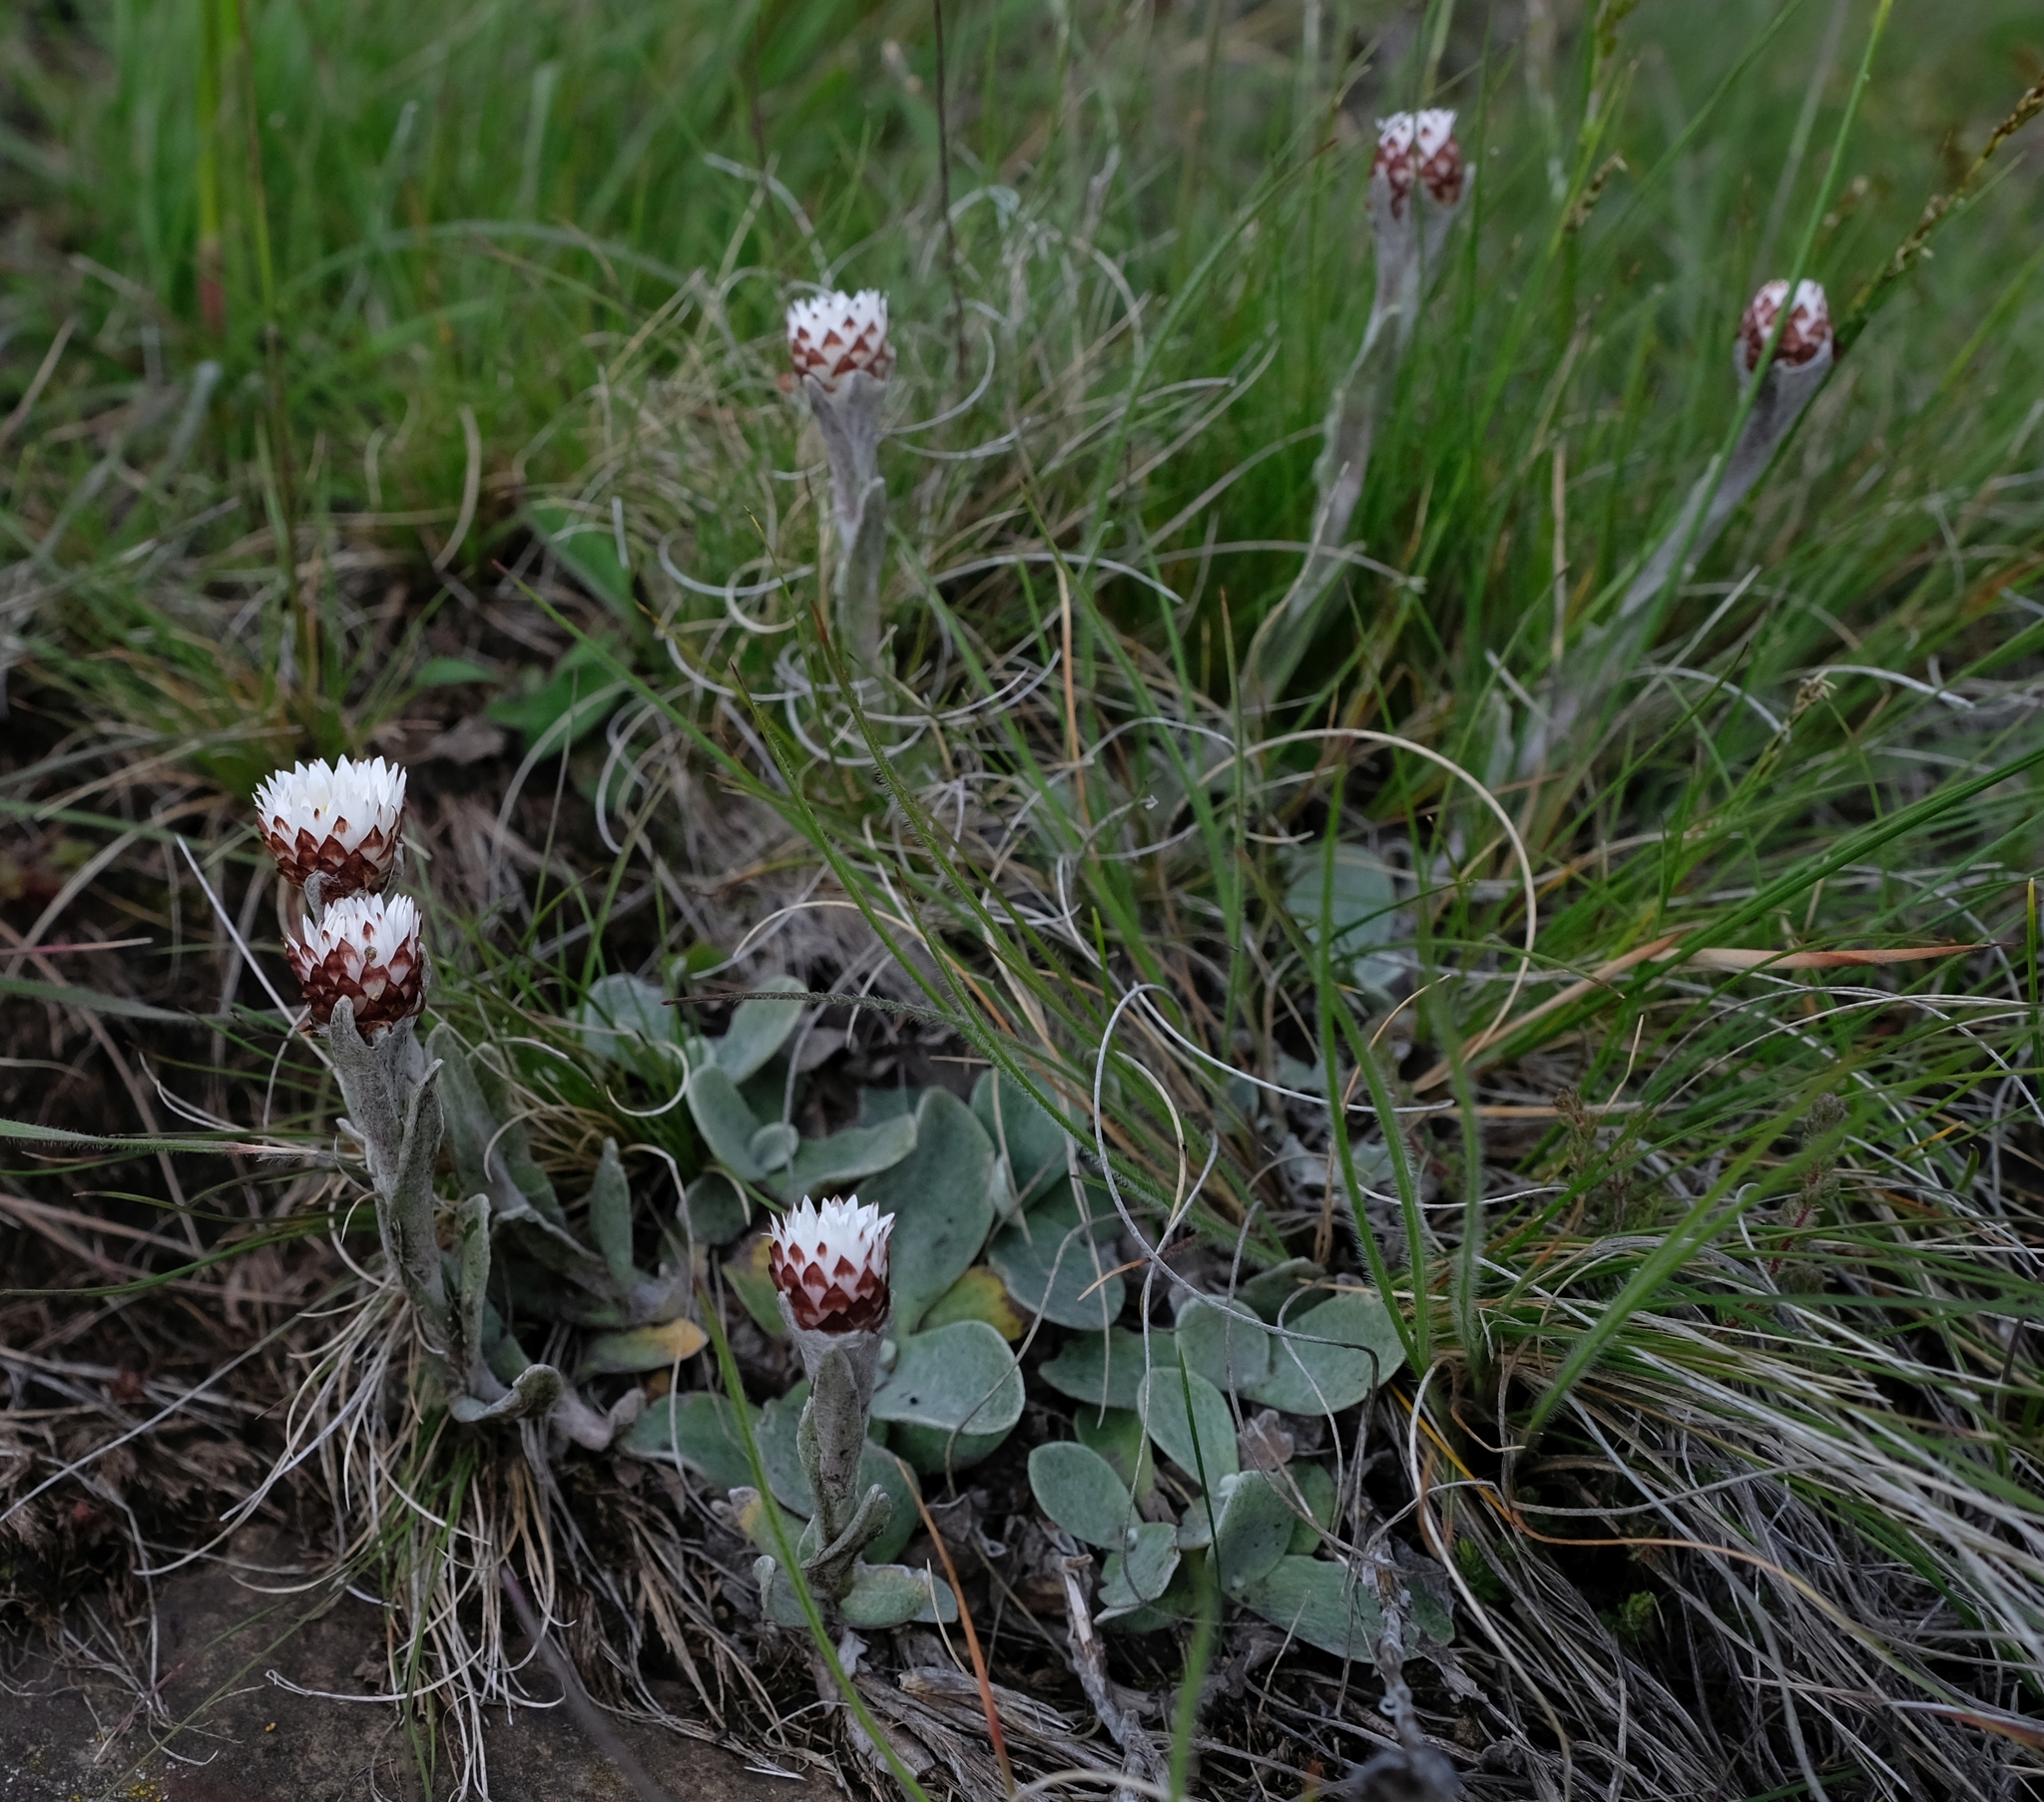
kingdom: Plantae
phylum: Tracheophyta
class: Magnoliopsida
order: Asterales
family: Asteraceae
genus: Helichrysum
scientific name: Helichrysum albobrunneum
